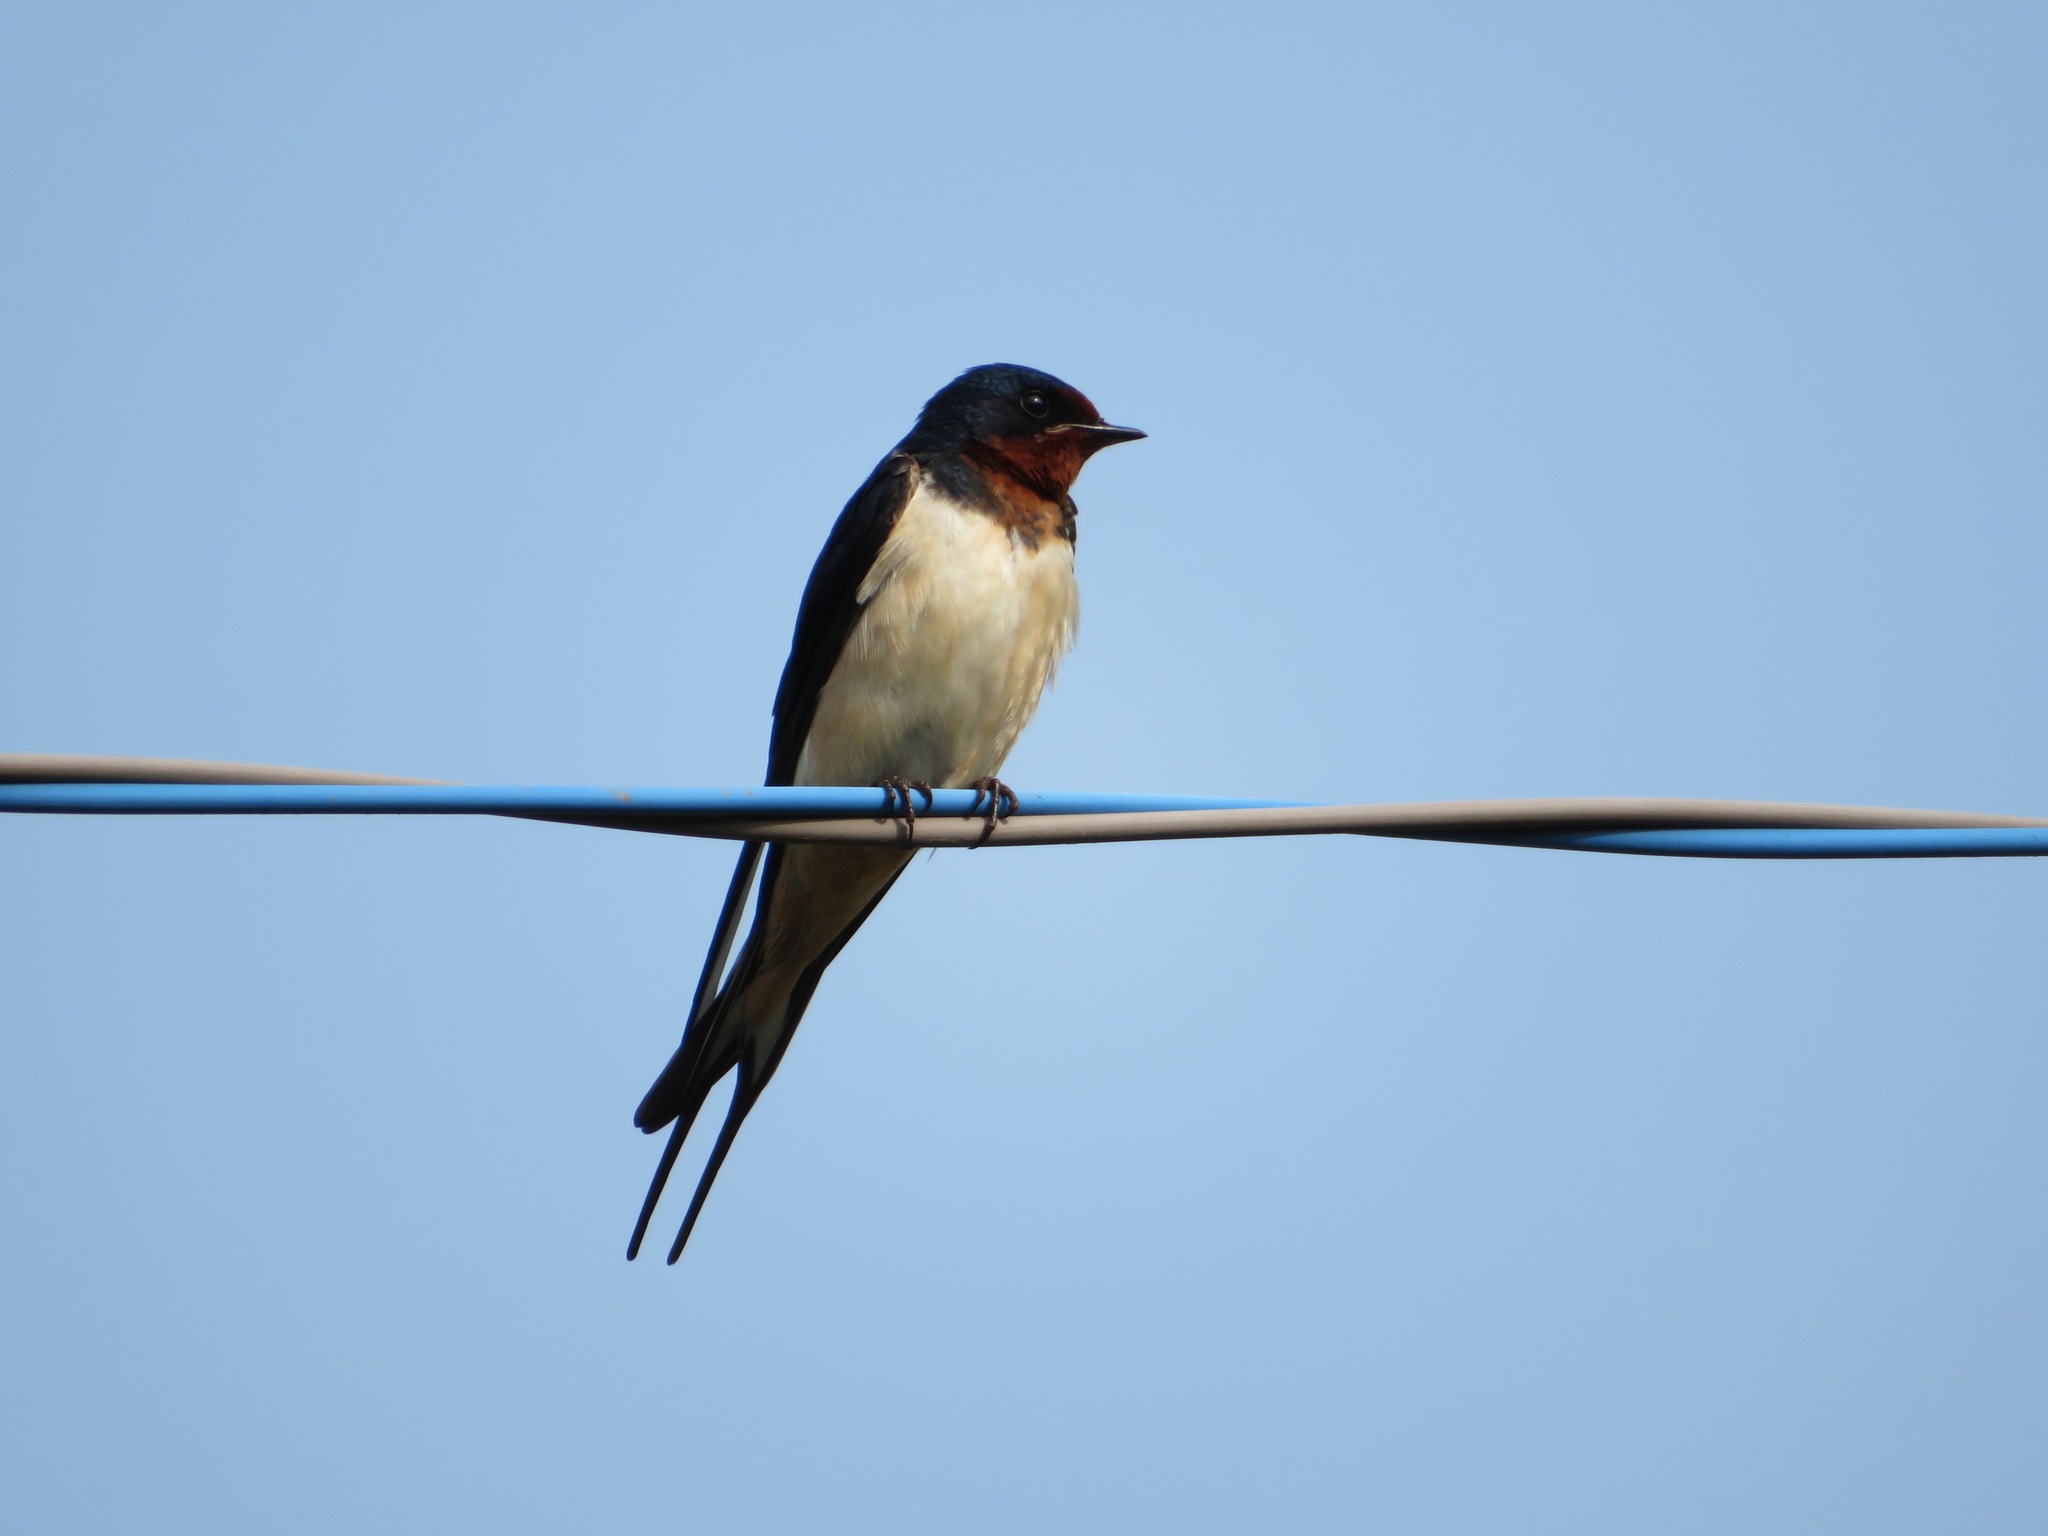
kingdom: Animalia
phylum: Chordata
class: Aves
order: Passeriformes
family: Hirundinidae
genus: Hirundo
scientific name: Hirundo rustica
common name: Barn swallow
